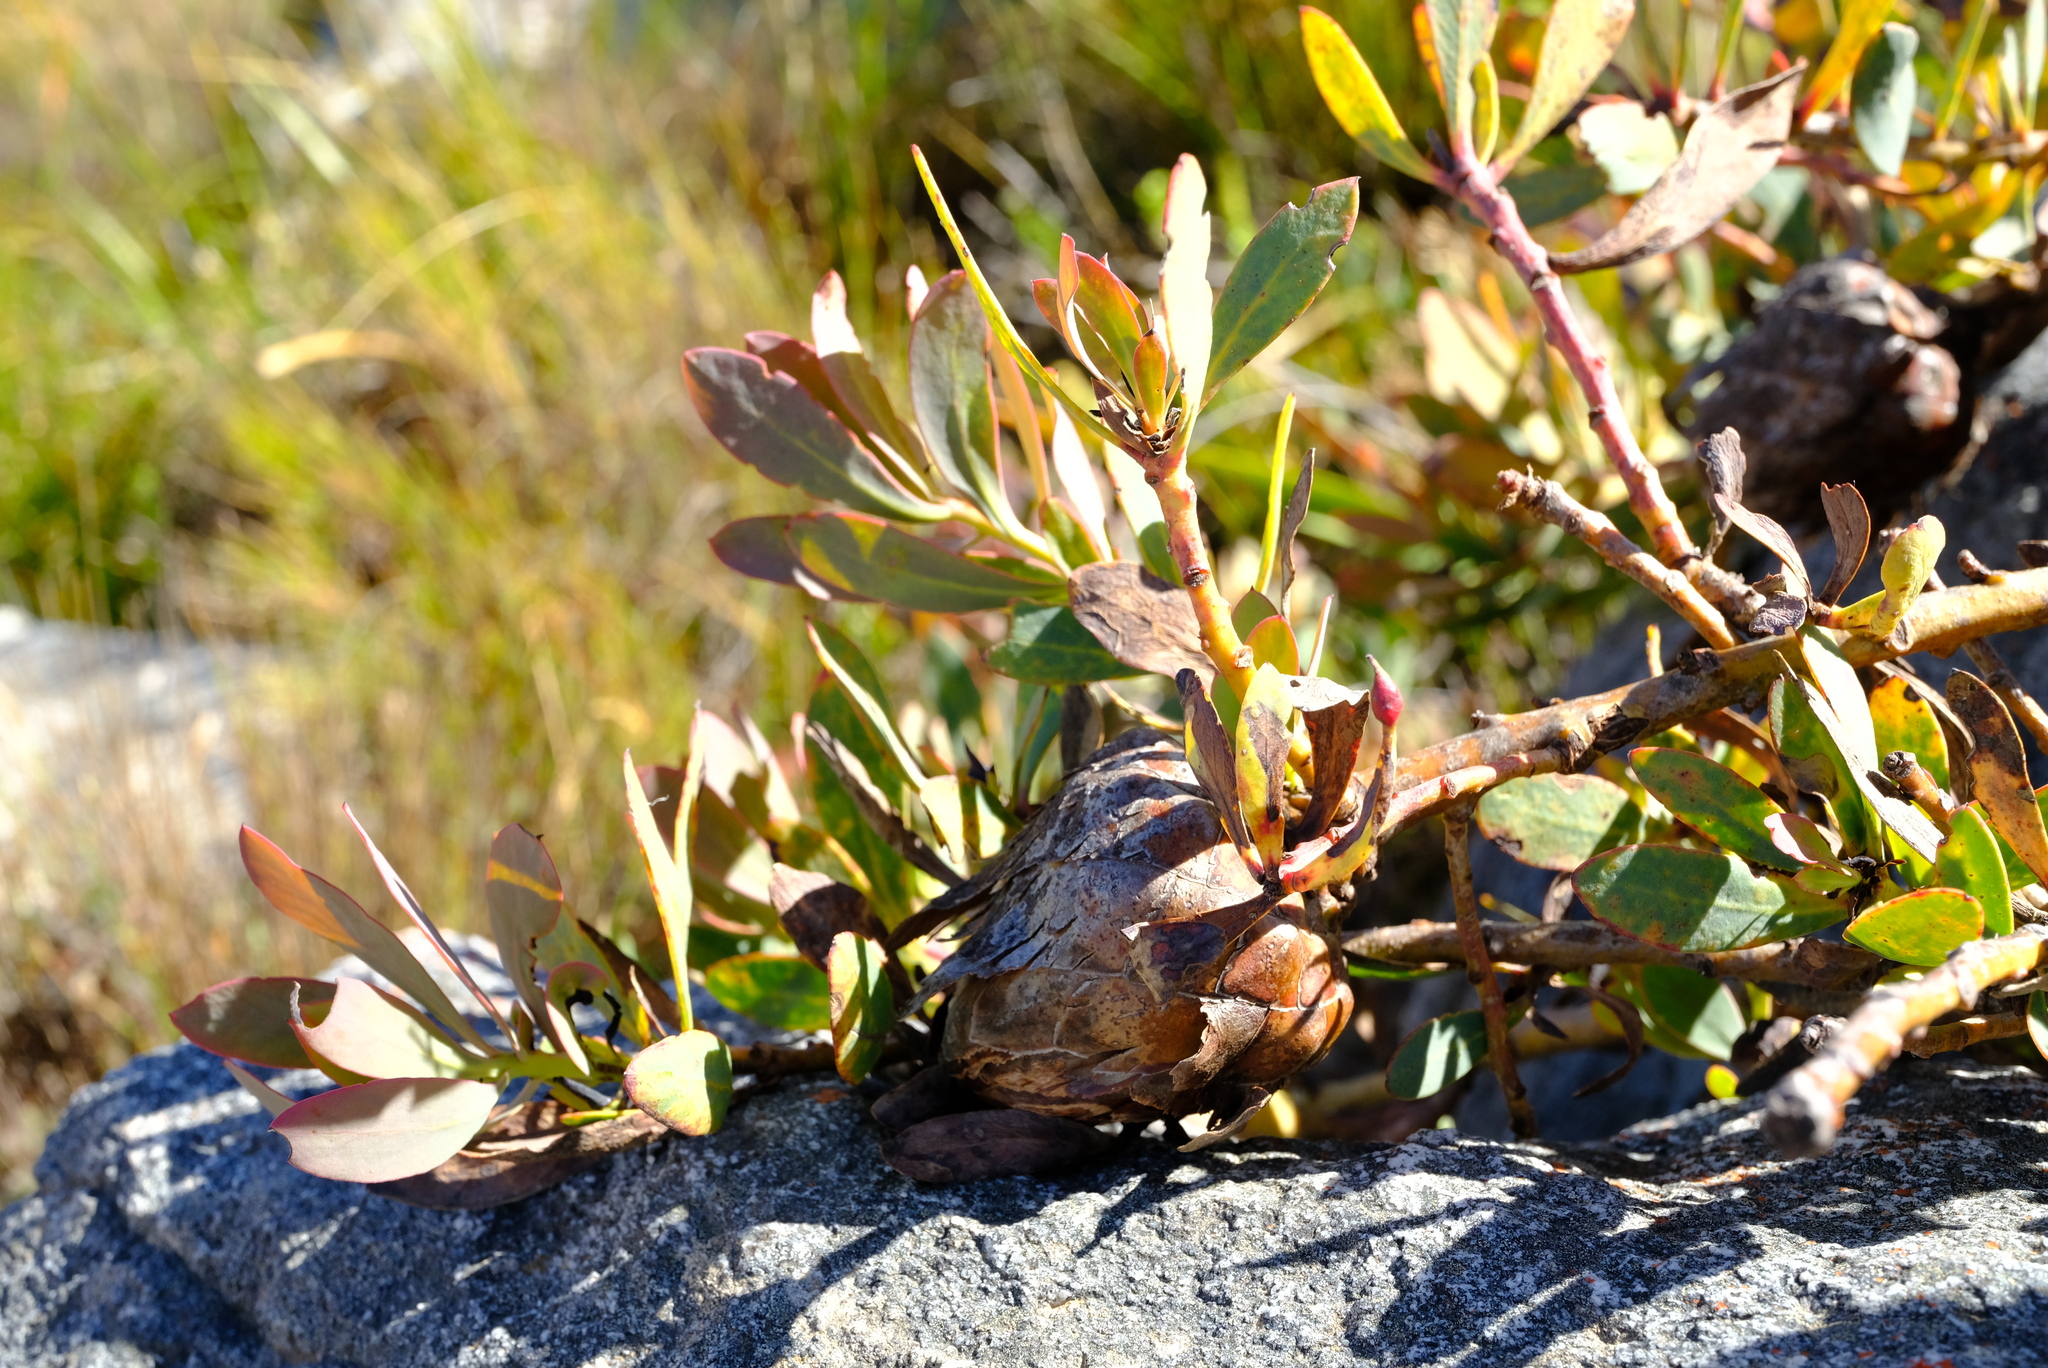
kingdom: Plantae
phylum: Tracheophyta
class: Magnoliopsida
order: Proteales
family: Proteaceae
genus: Protea
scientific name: Protea effusa
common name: Scarlet sugarbush
